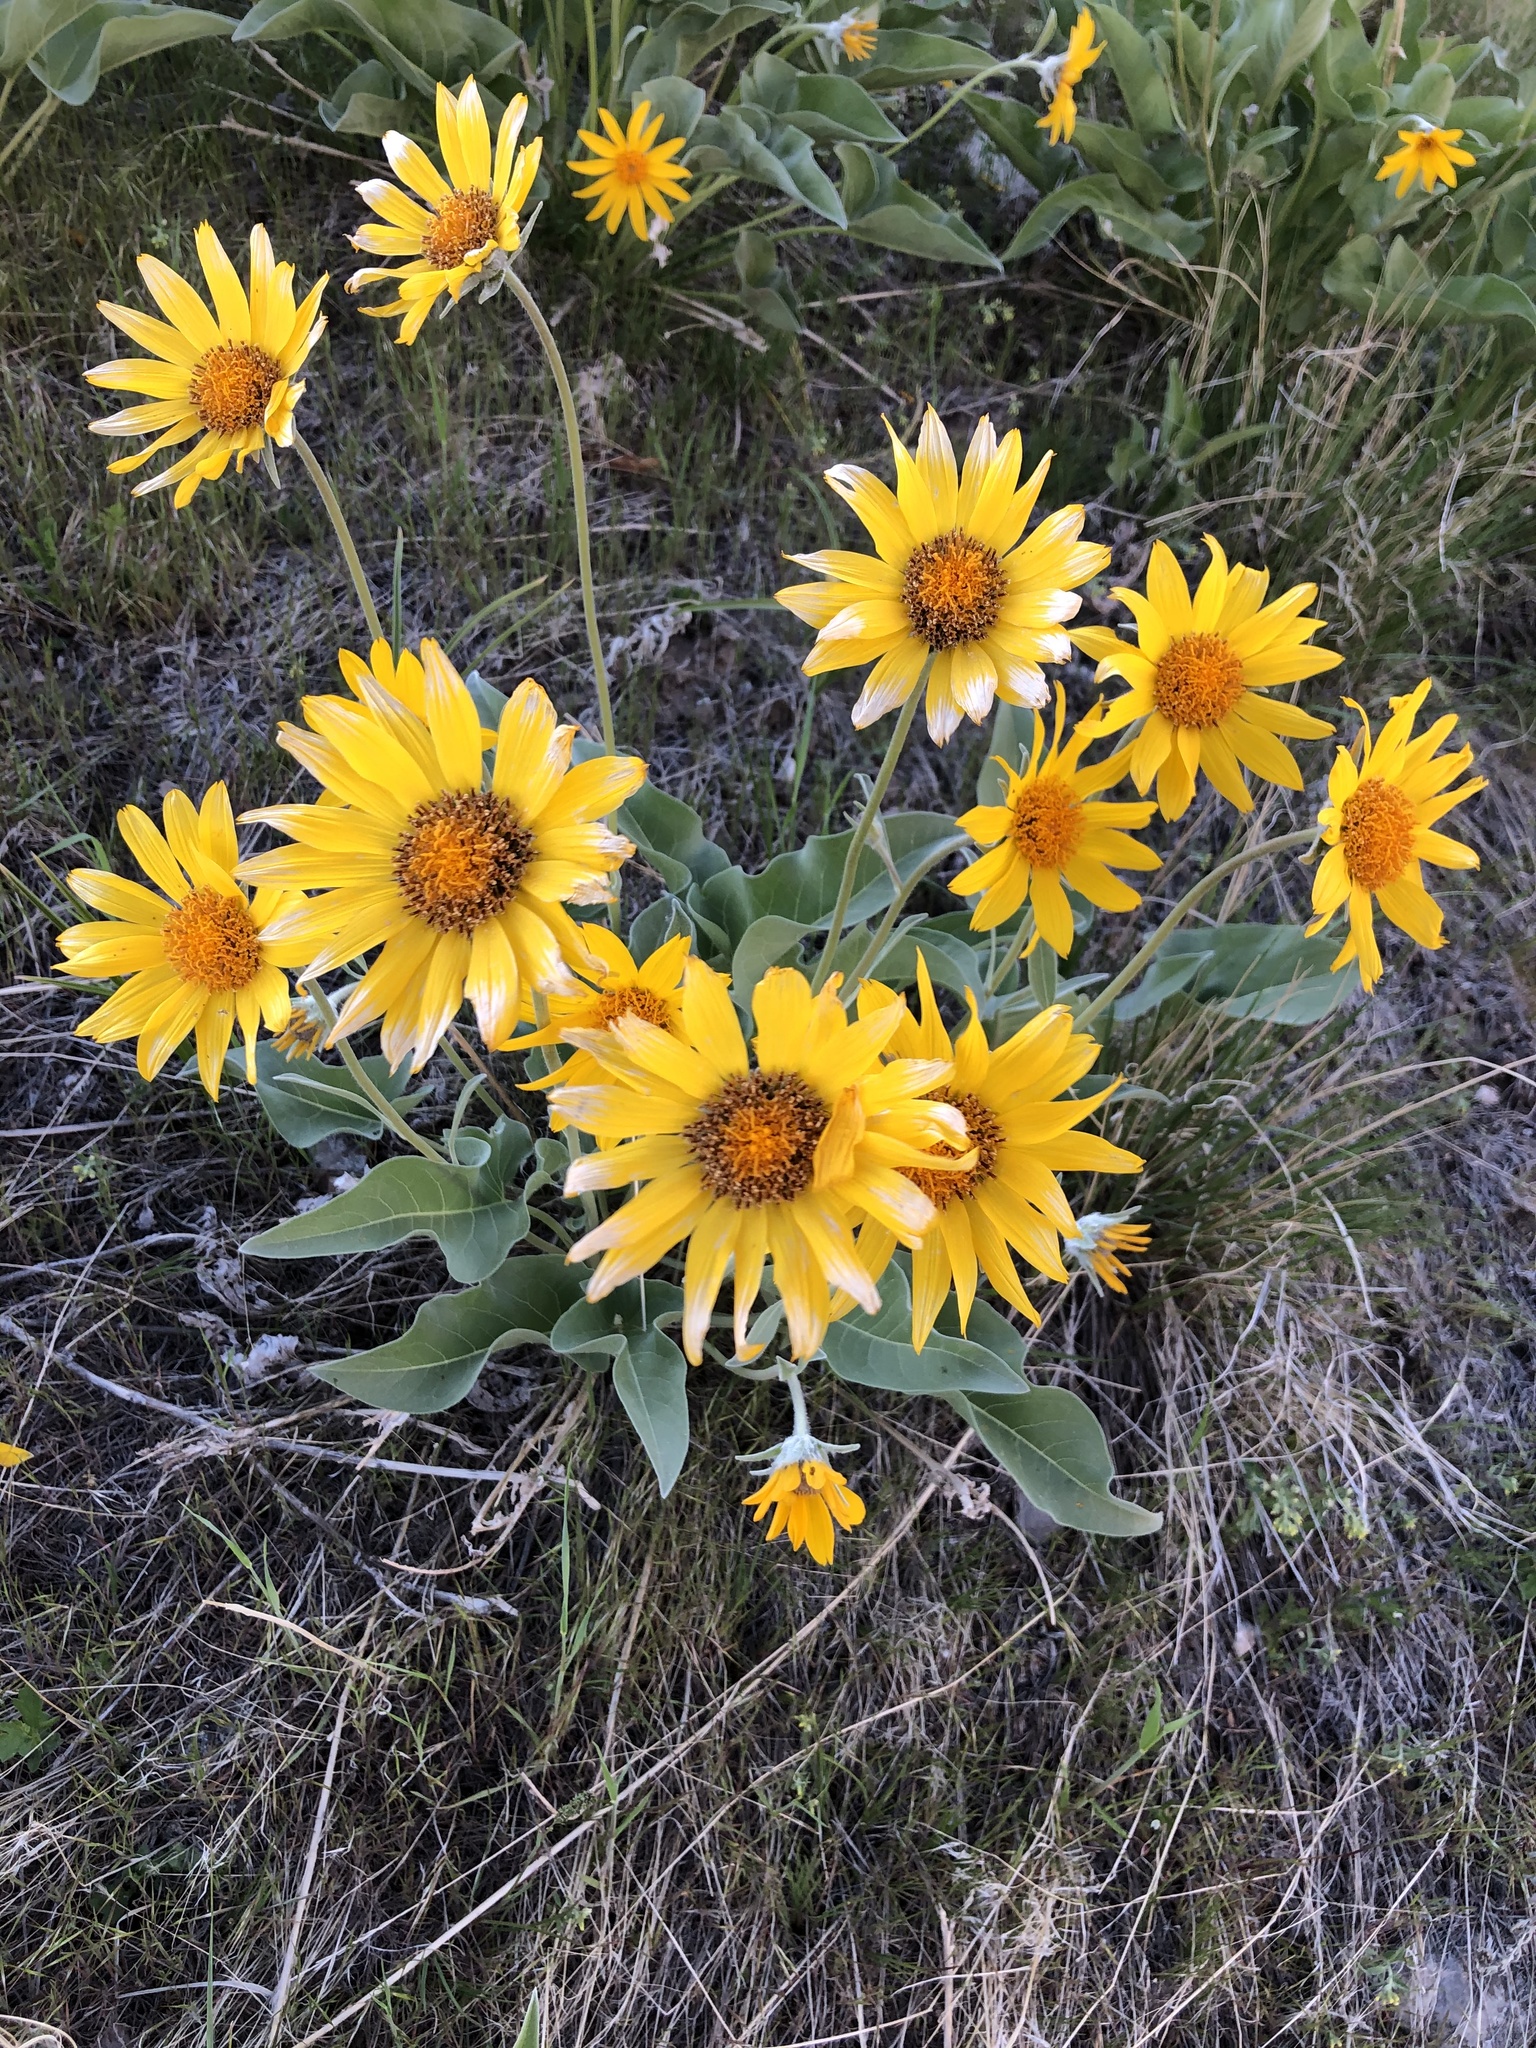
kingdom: Plantae
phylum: Tracheophyta
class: Magnoliopsida
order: Asterales
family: Asteraceae
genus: Wyethia
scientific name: Wyethia sagittata
